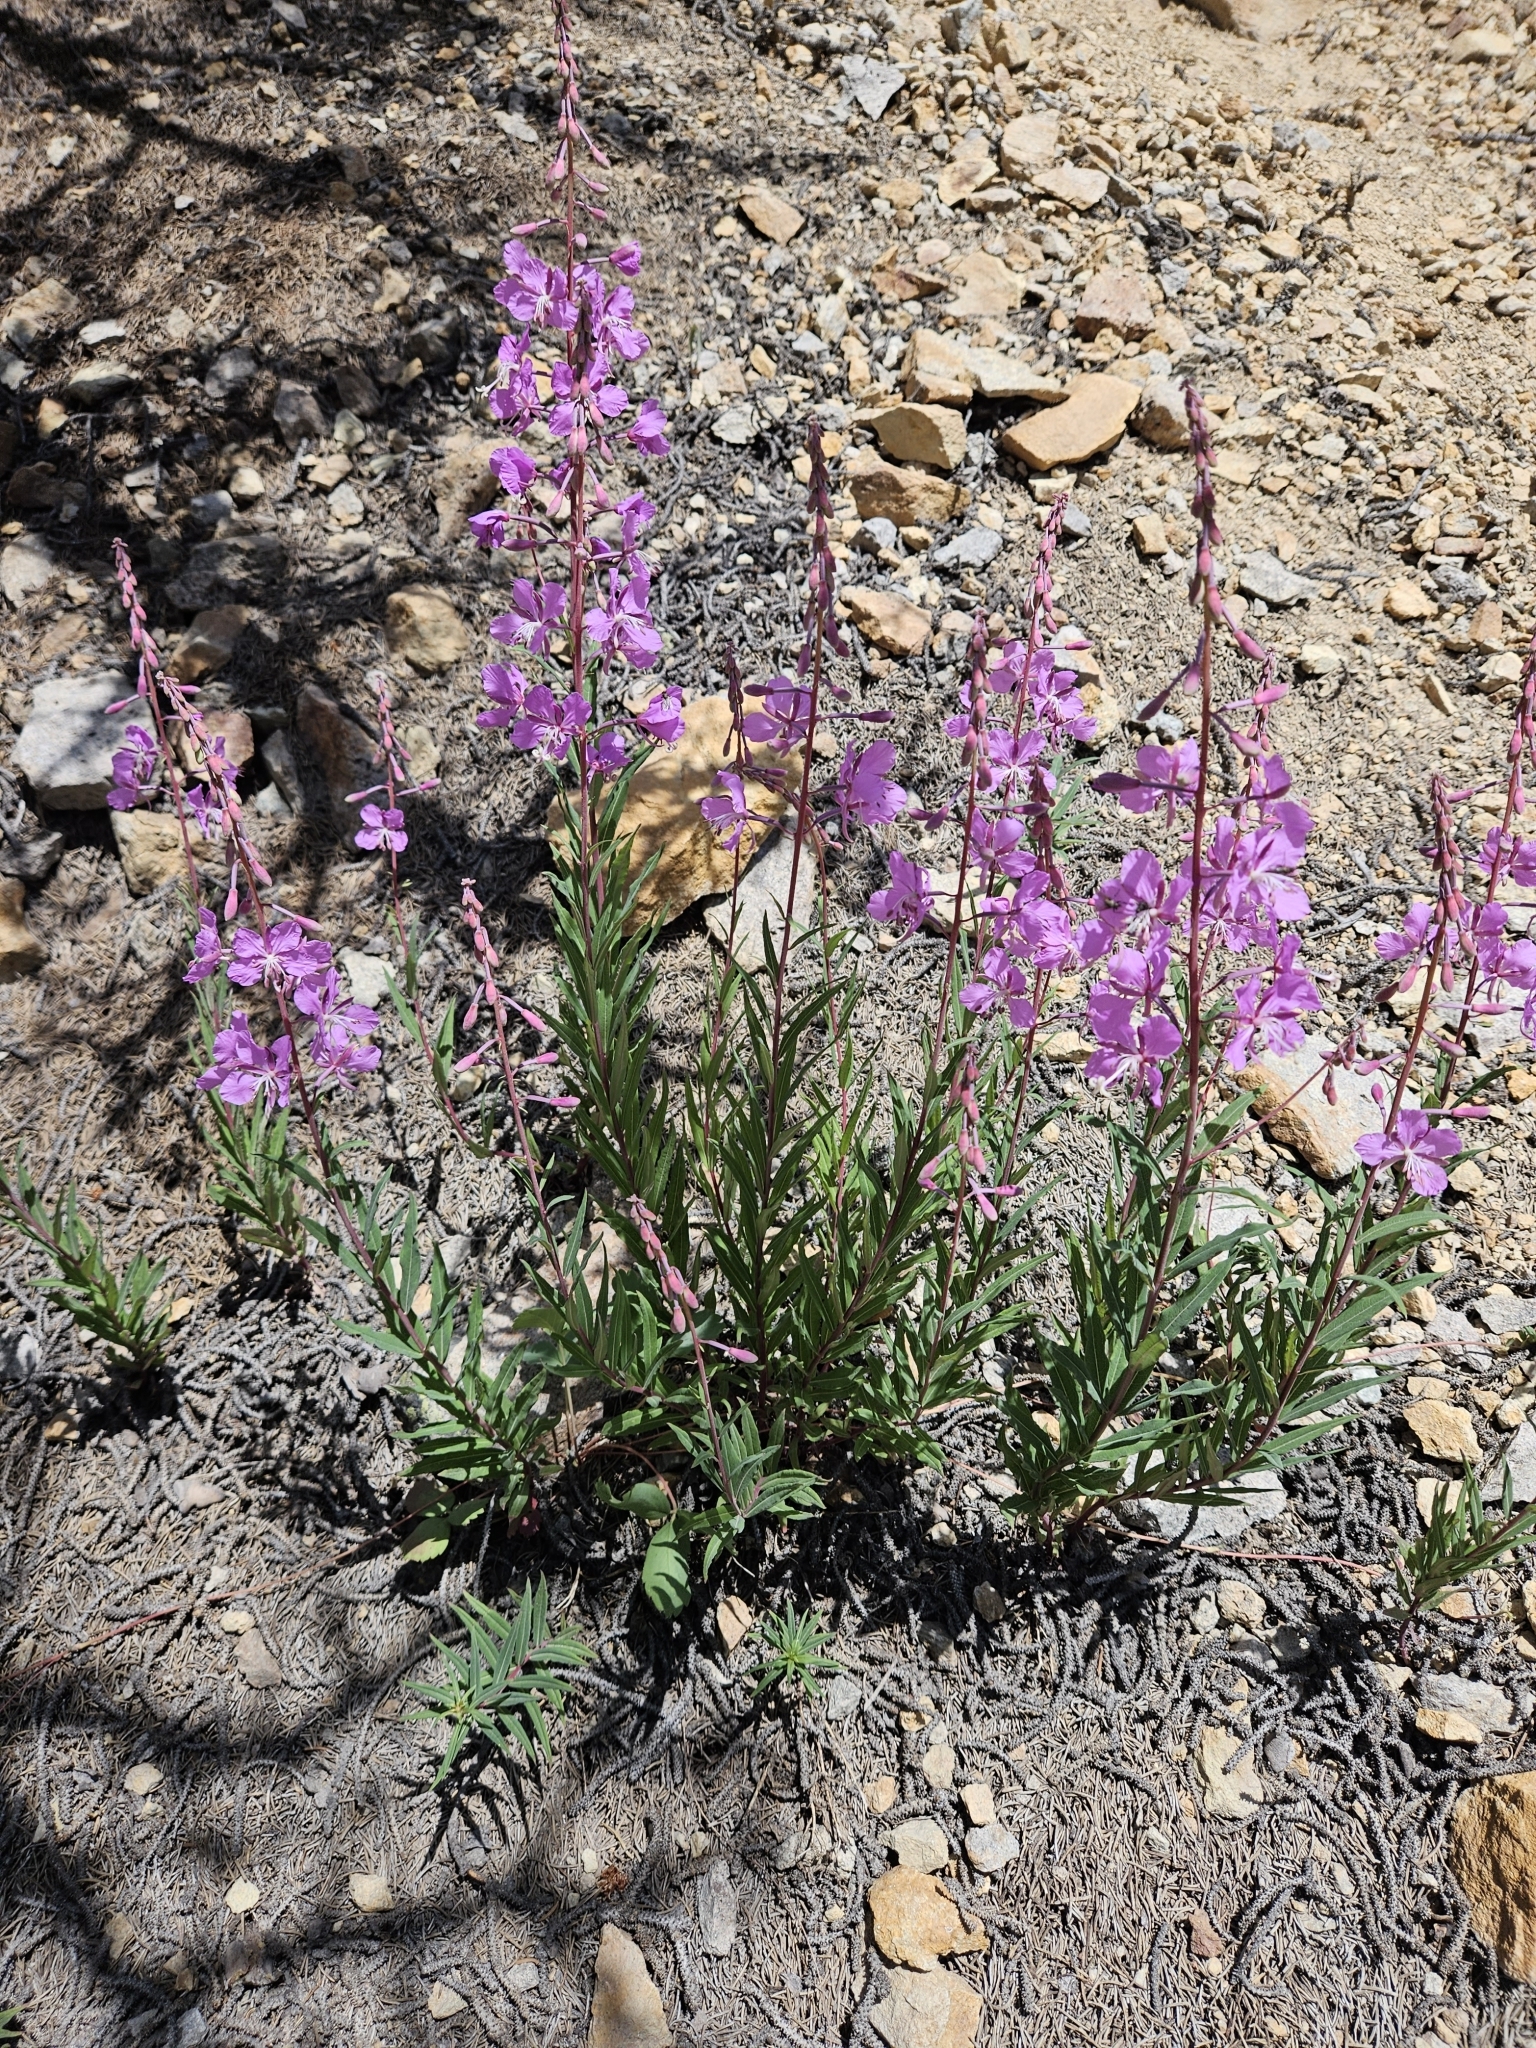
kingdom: Plantae
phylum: Tracheophyta
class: Magnoliopsida
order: Myrtales
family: Onagraceae
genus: Chamaenerion
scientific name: Chamaenerion angustifolium
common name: Fireweed
